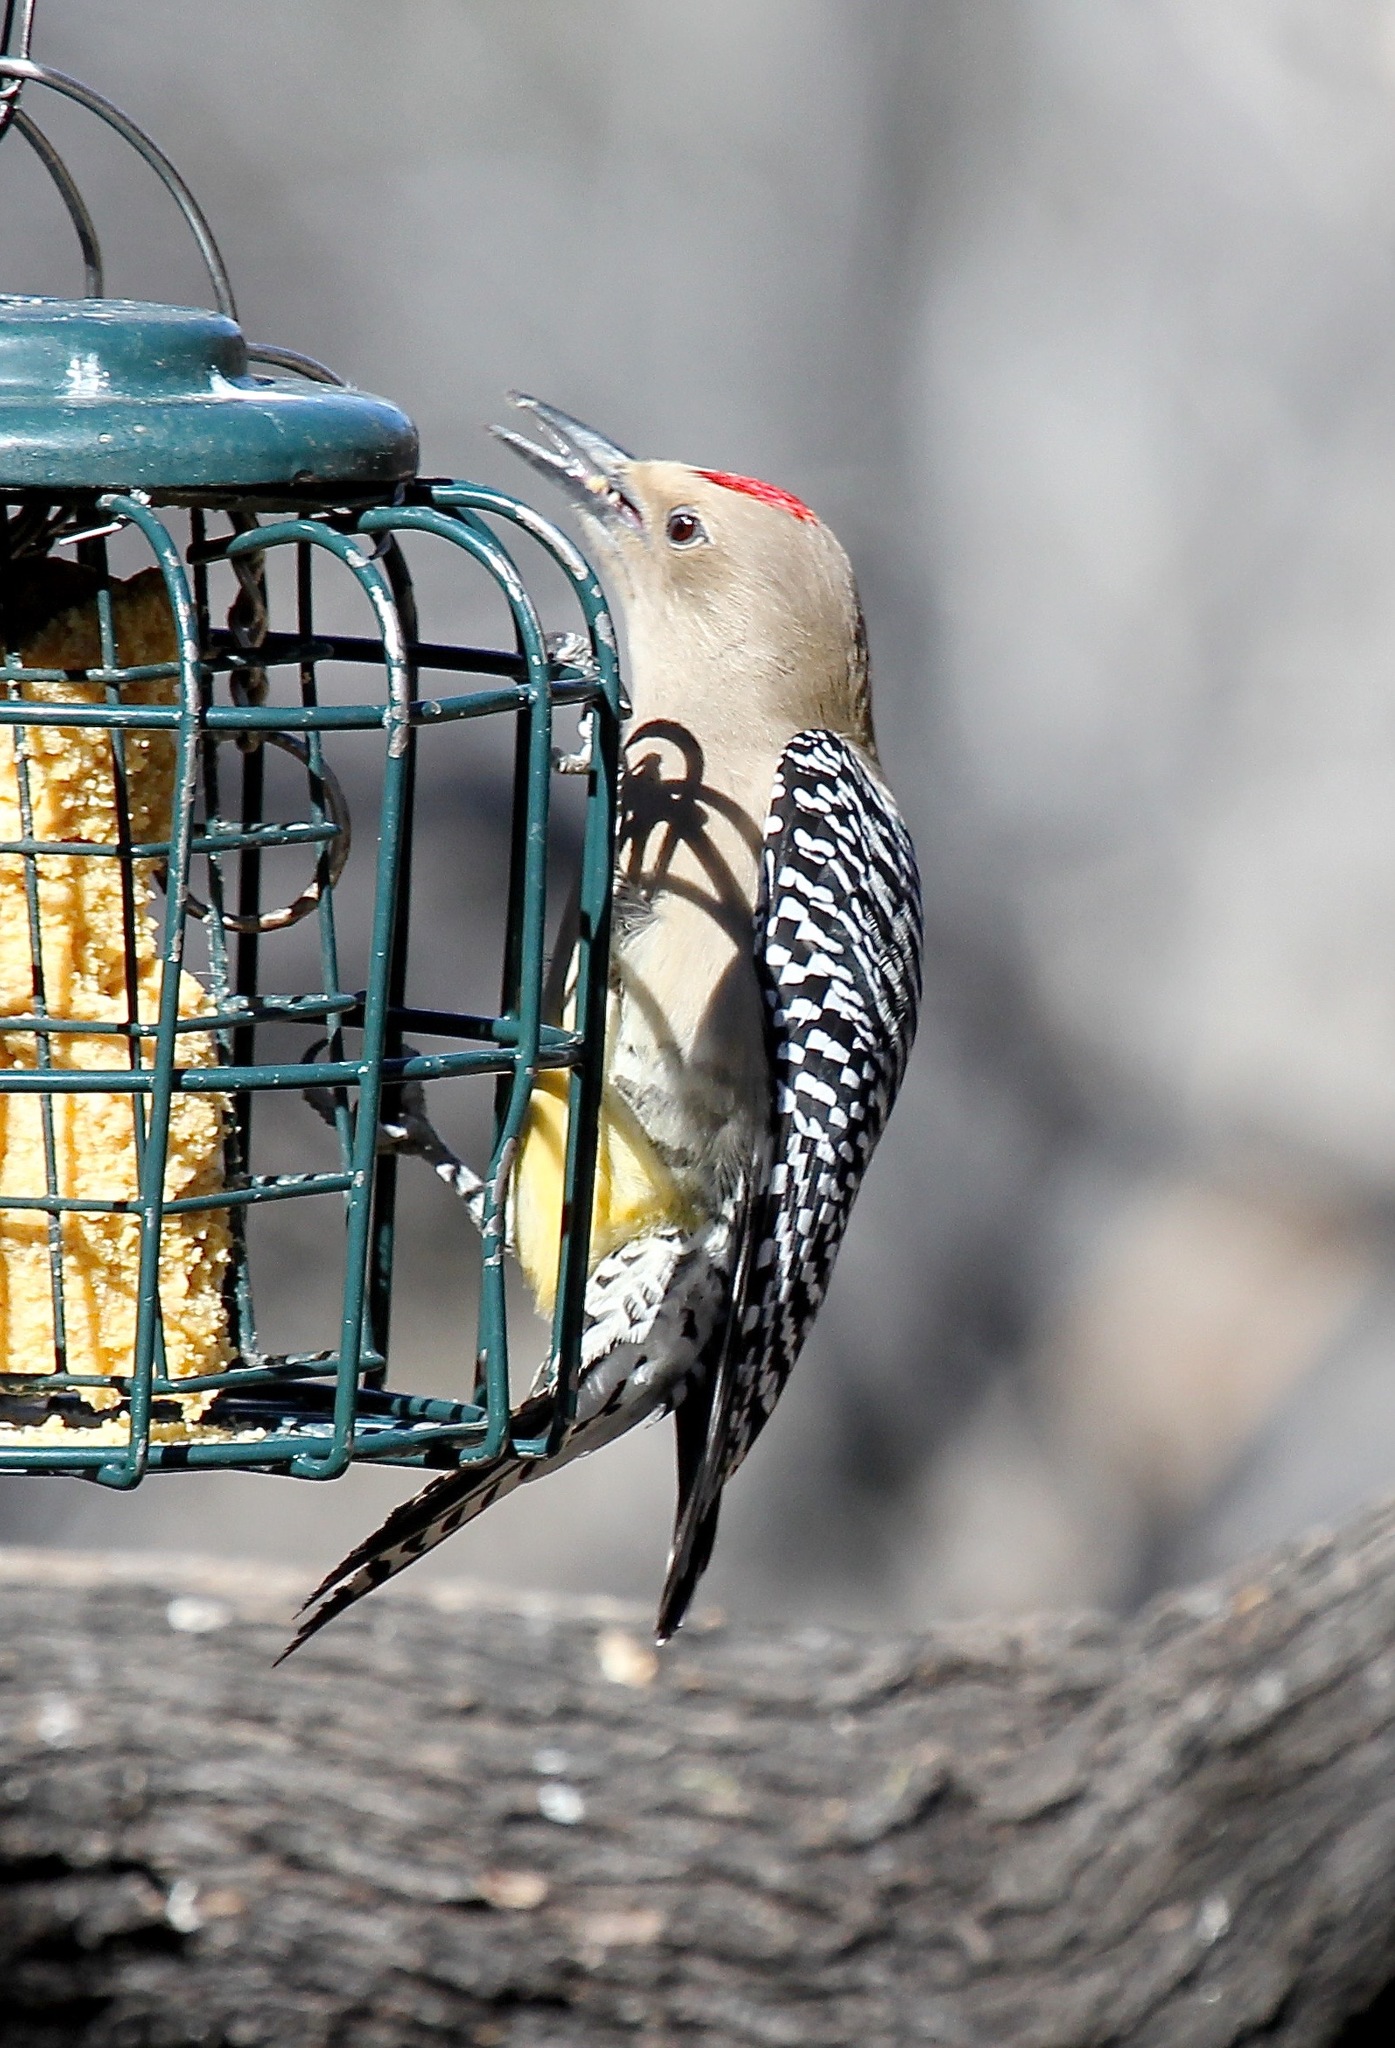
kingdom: Animalia
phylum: Chordata
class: Aves
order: Piciformes
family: Picidae
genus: Melanerpes
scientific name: Melanerpes uropygialis
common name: Gila woodpecker
